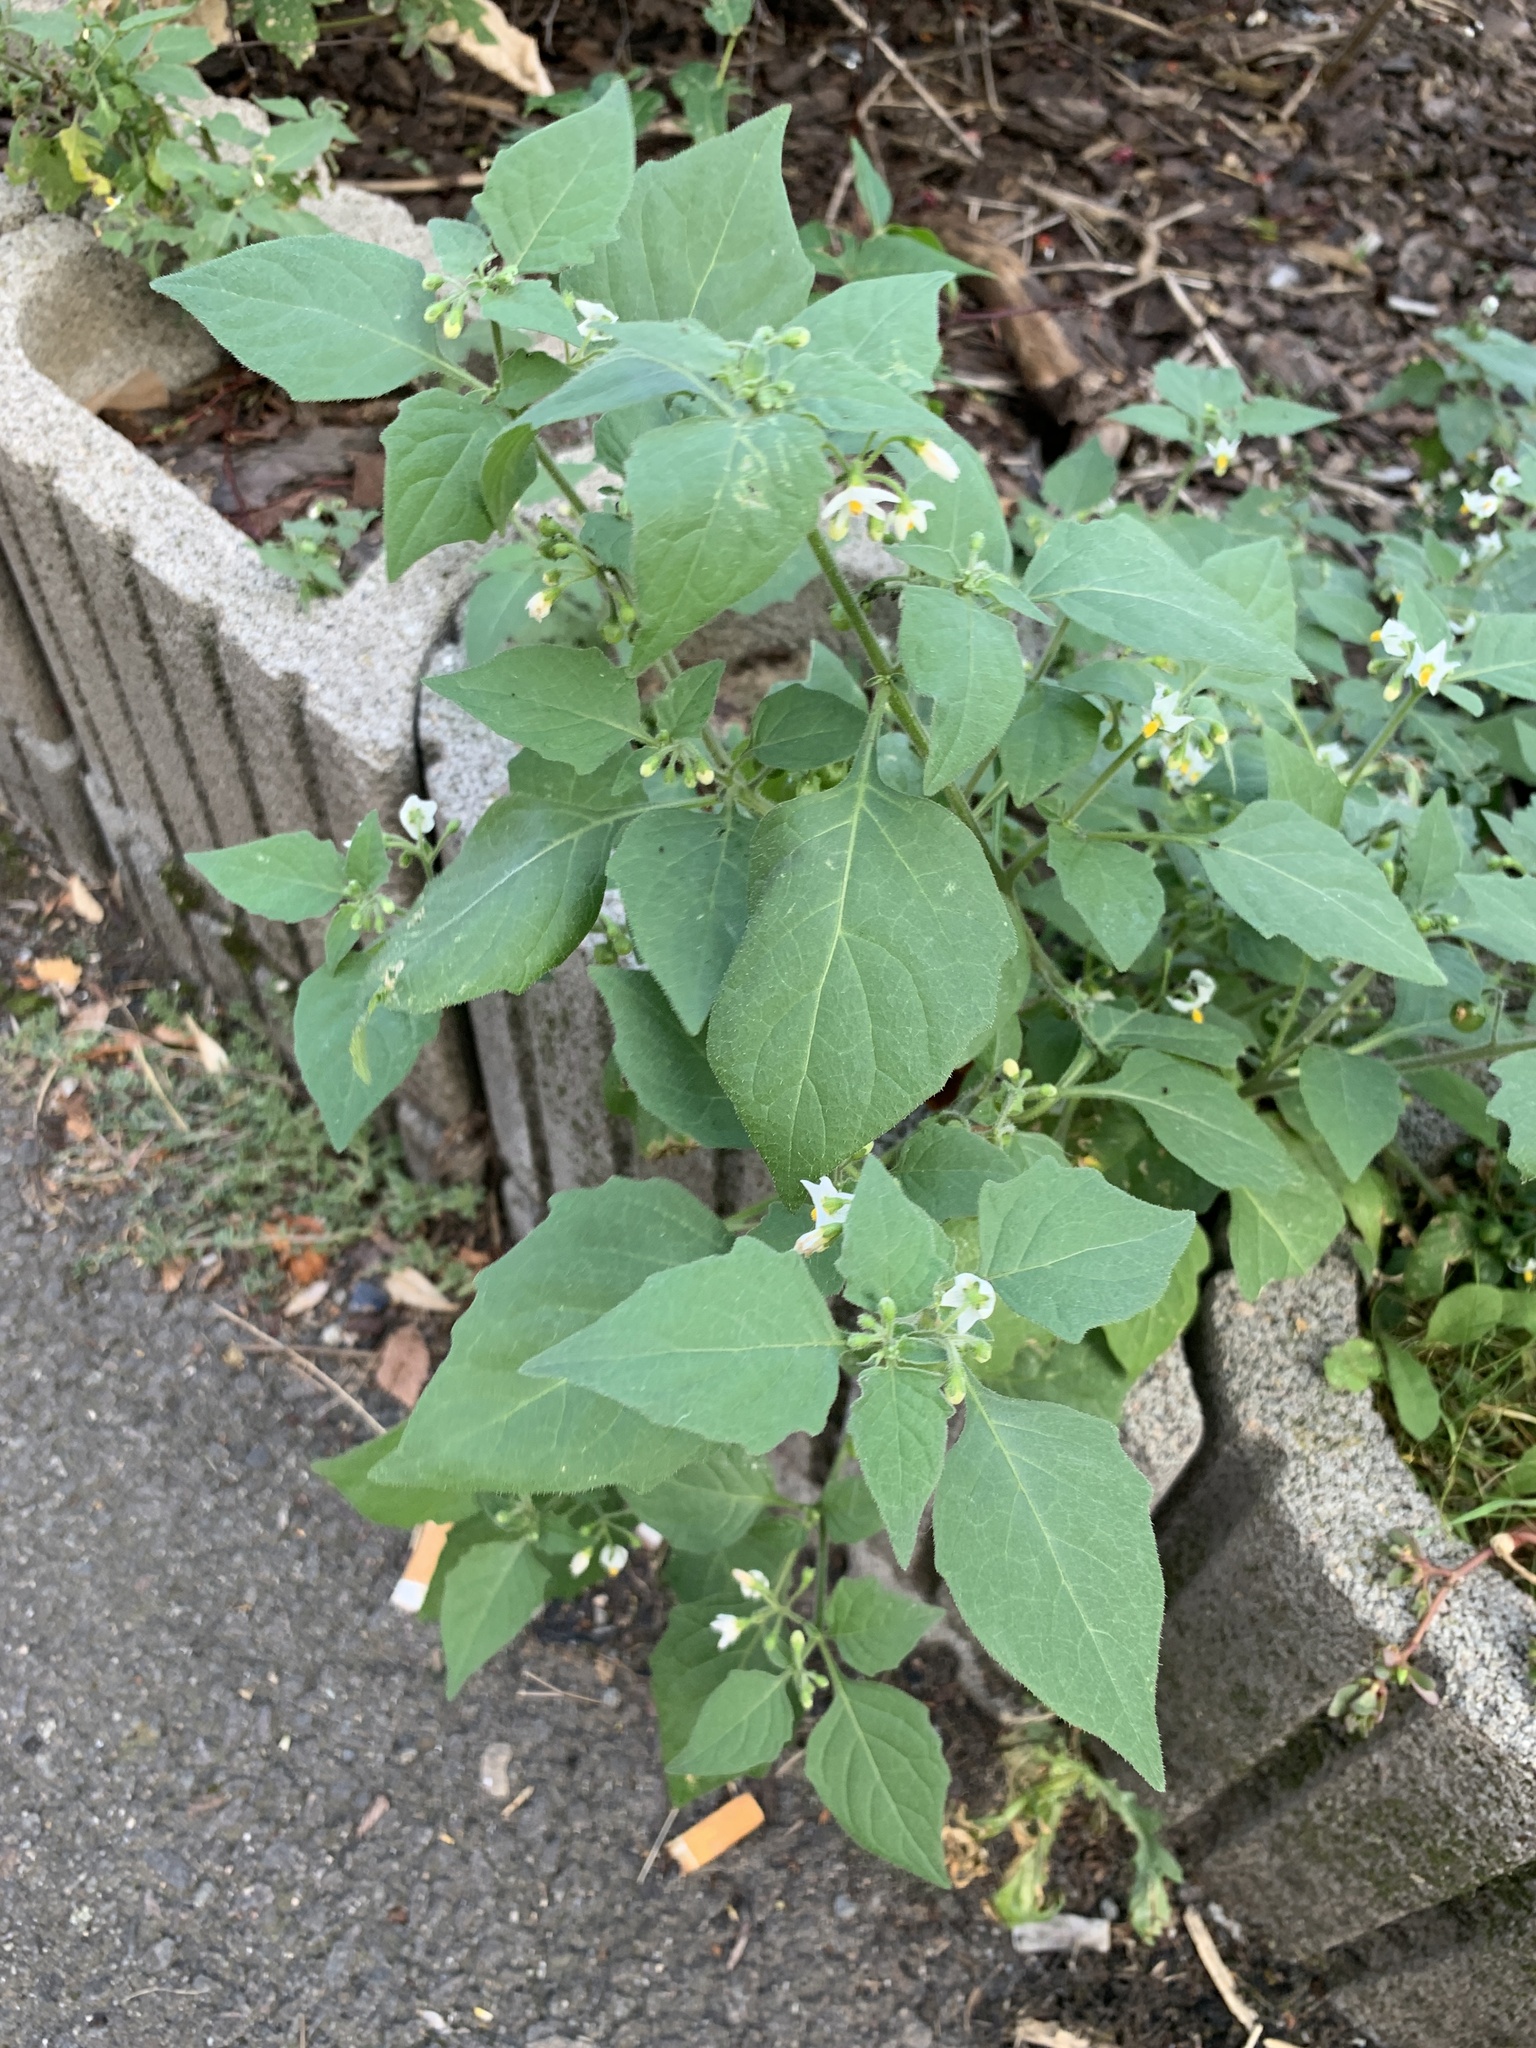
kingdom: Plantae
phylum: Tracheophyta
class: Magnoliopsida
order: Solanales
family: Solanaceae
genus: Solanum
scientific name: Solanum nigrum
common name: Black nightshade
